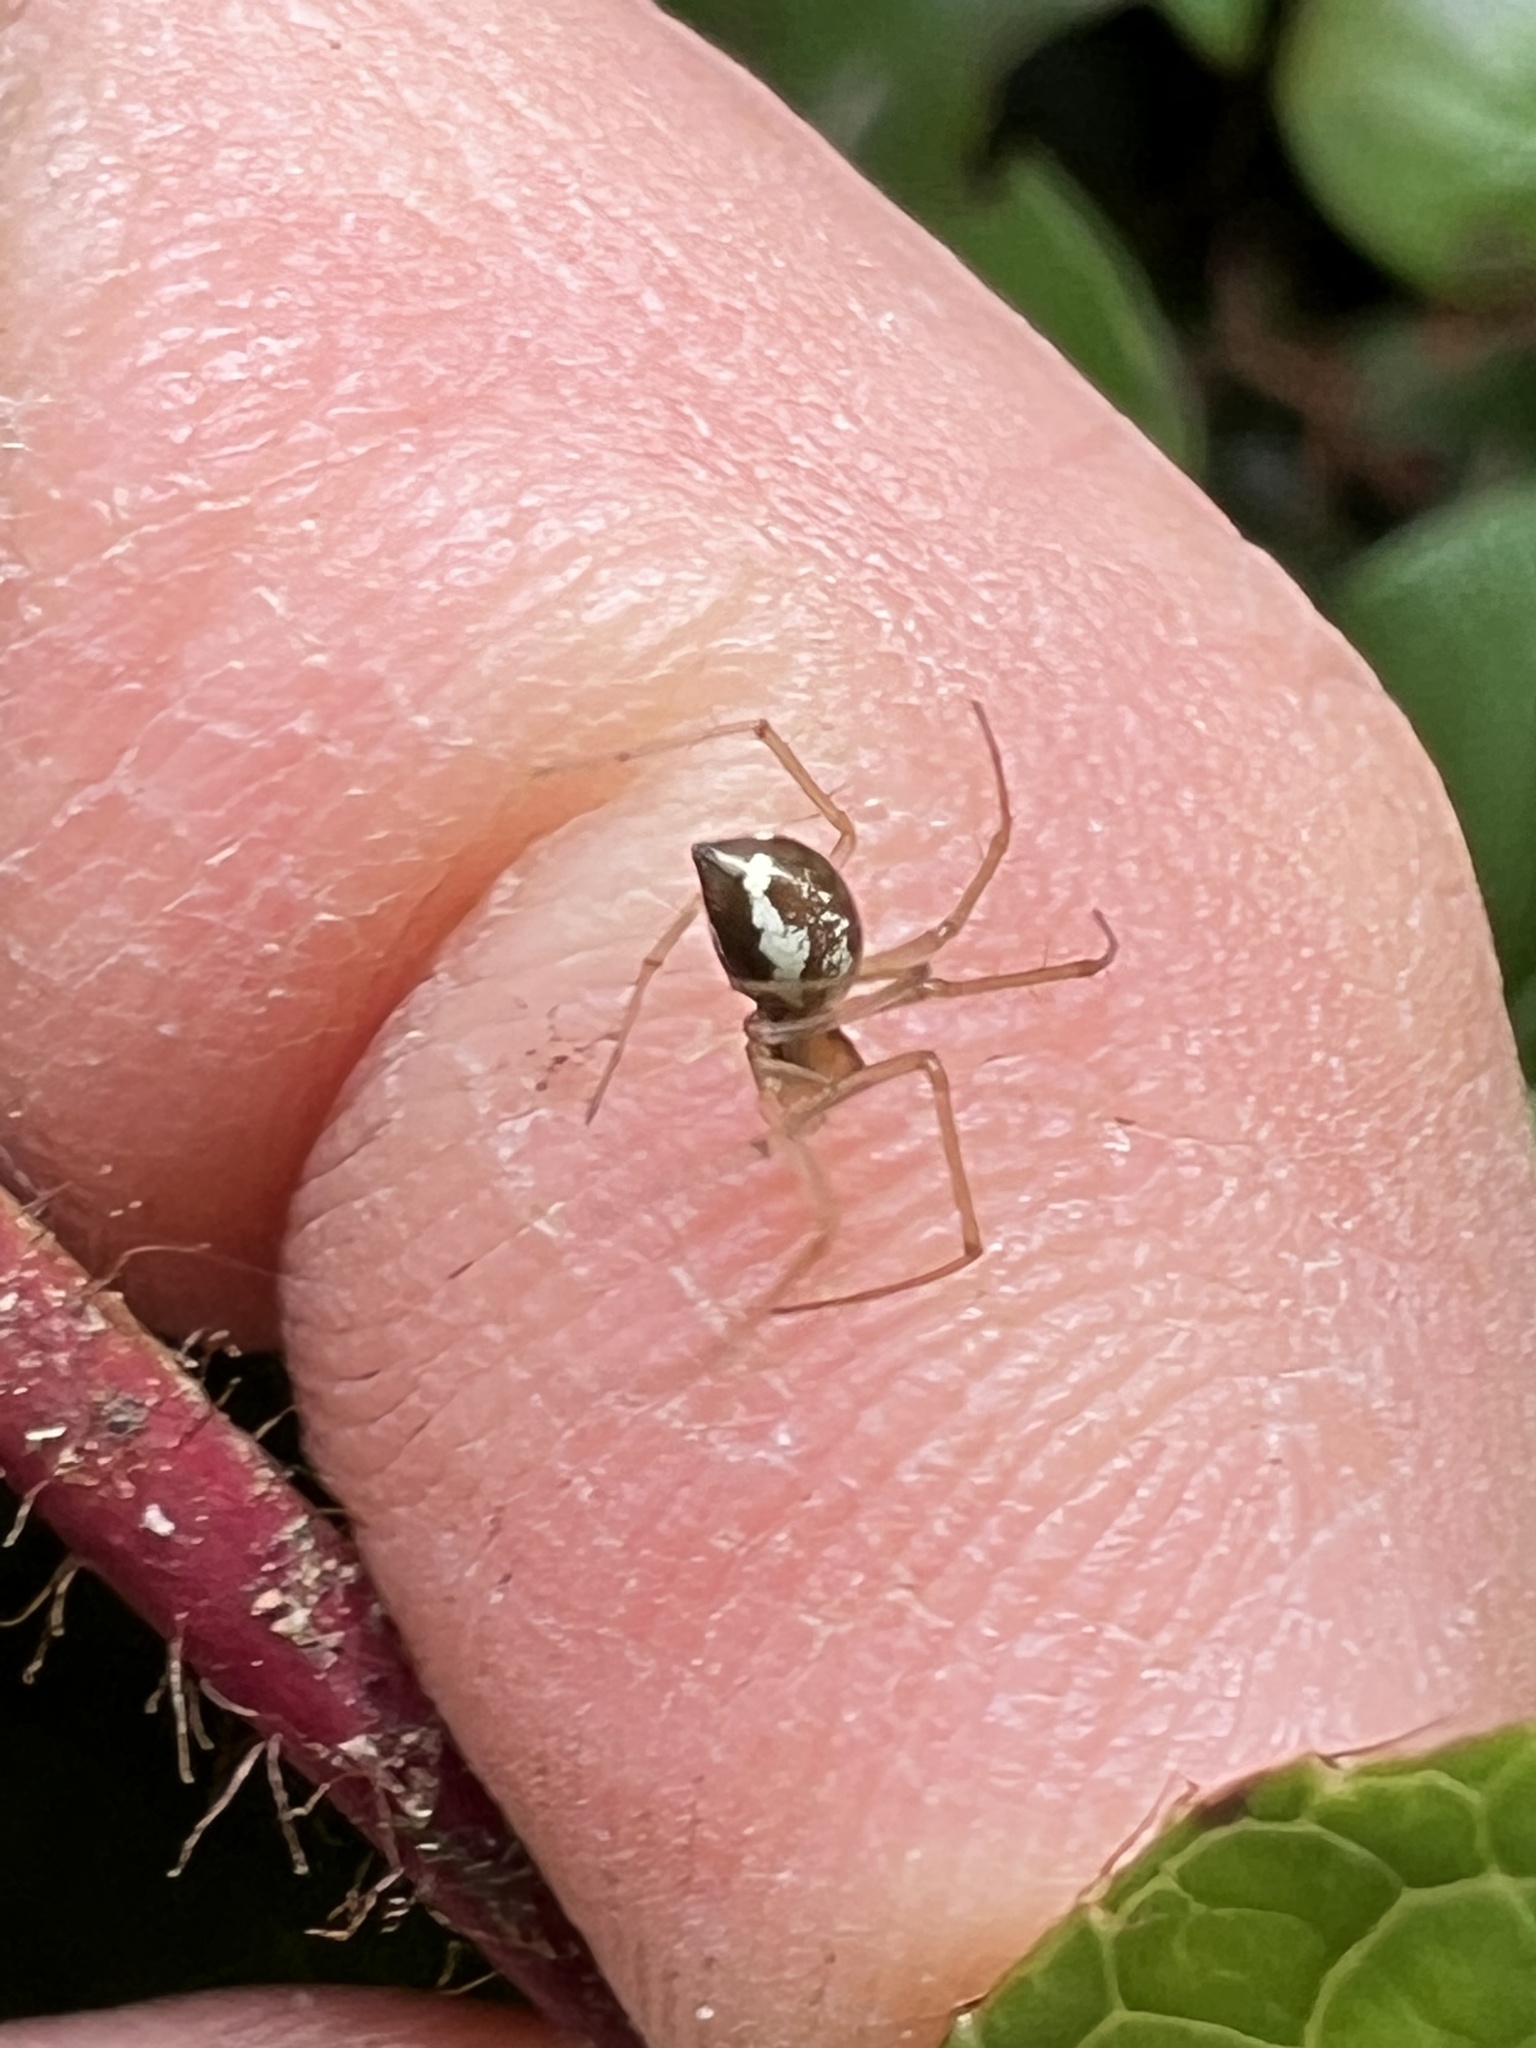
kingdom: Animalia
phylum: Arthropoda
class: Arachnida
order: Araneae
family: Linyphiidae
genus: Microlinyphia
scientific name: Microlinyphia dana
